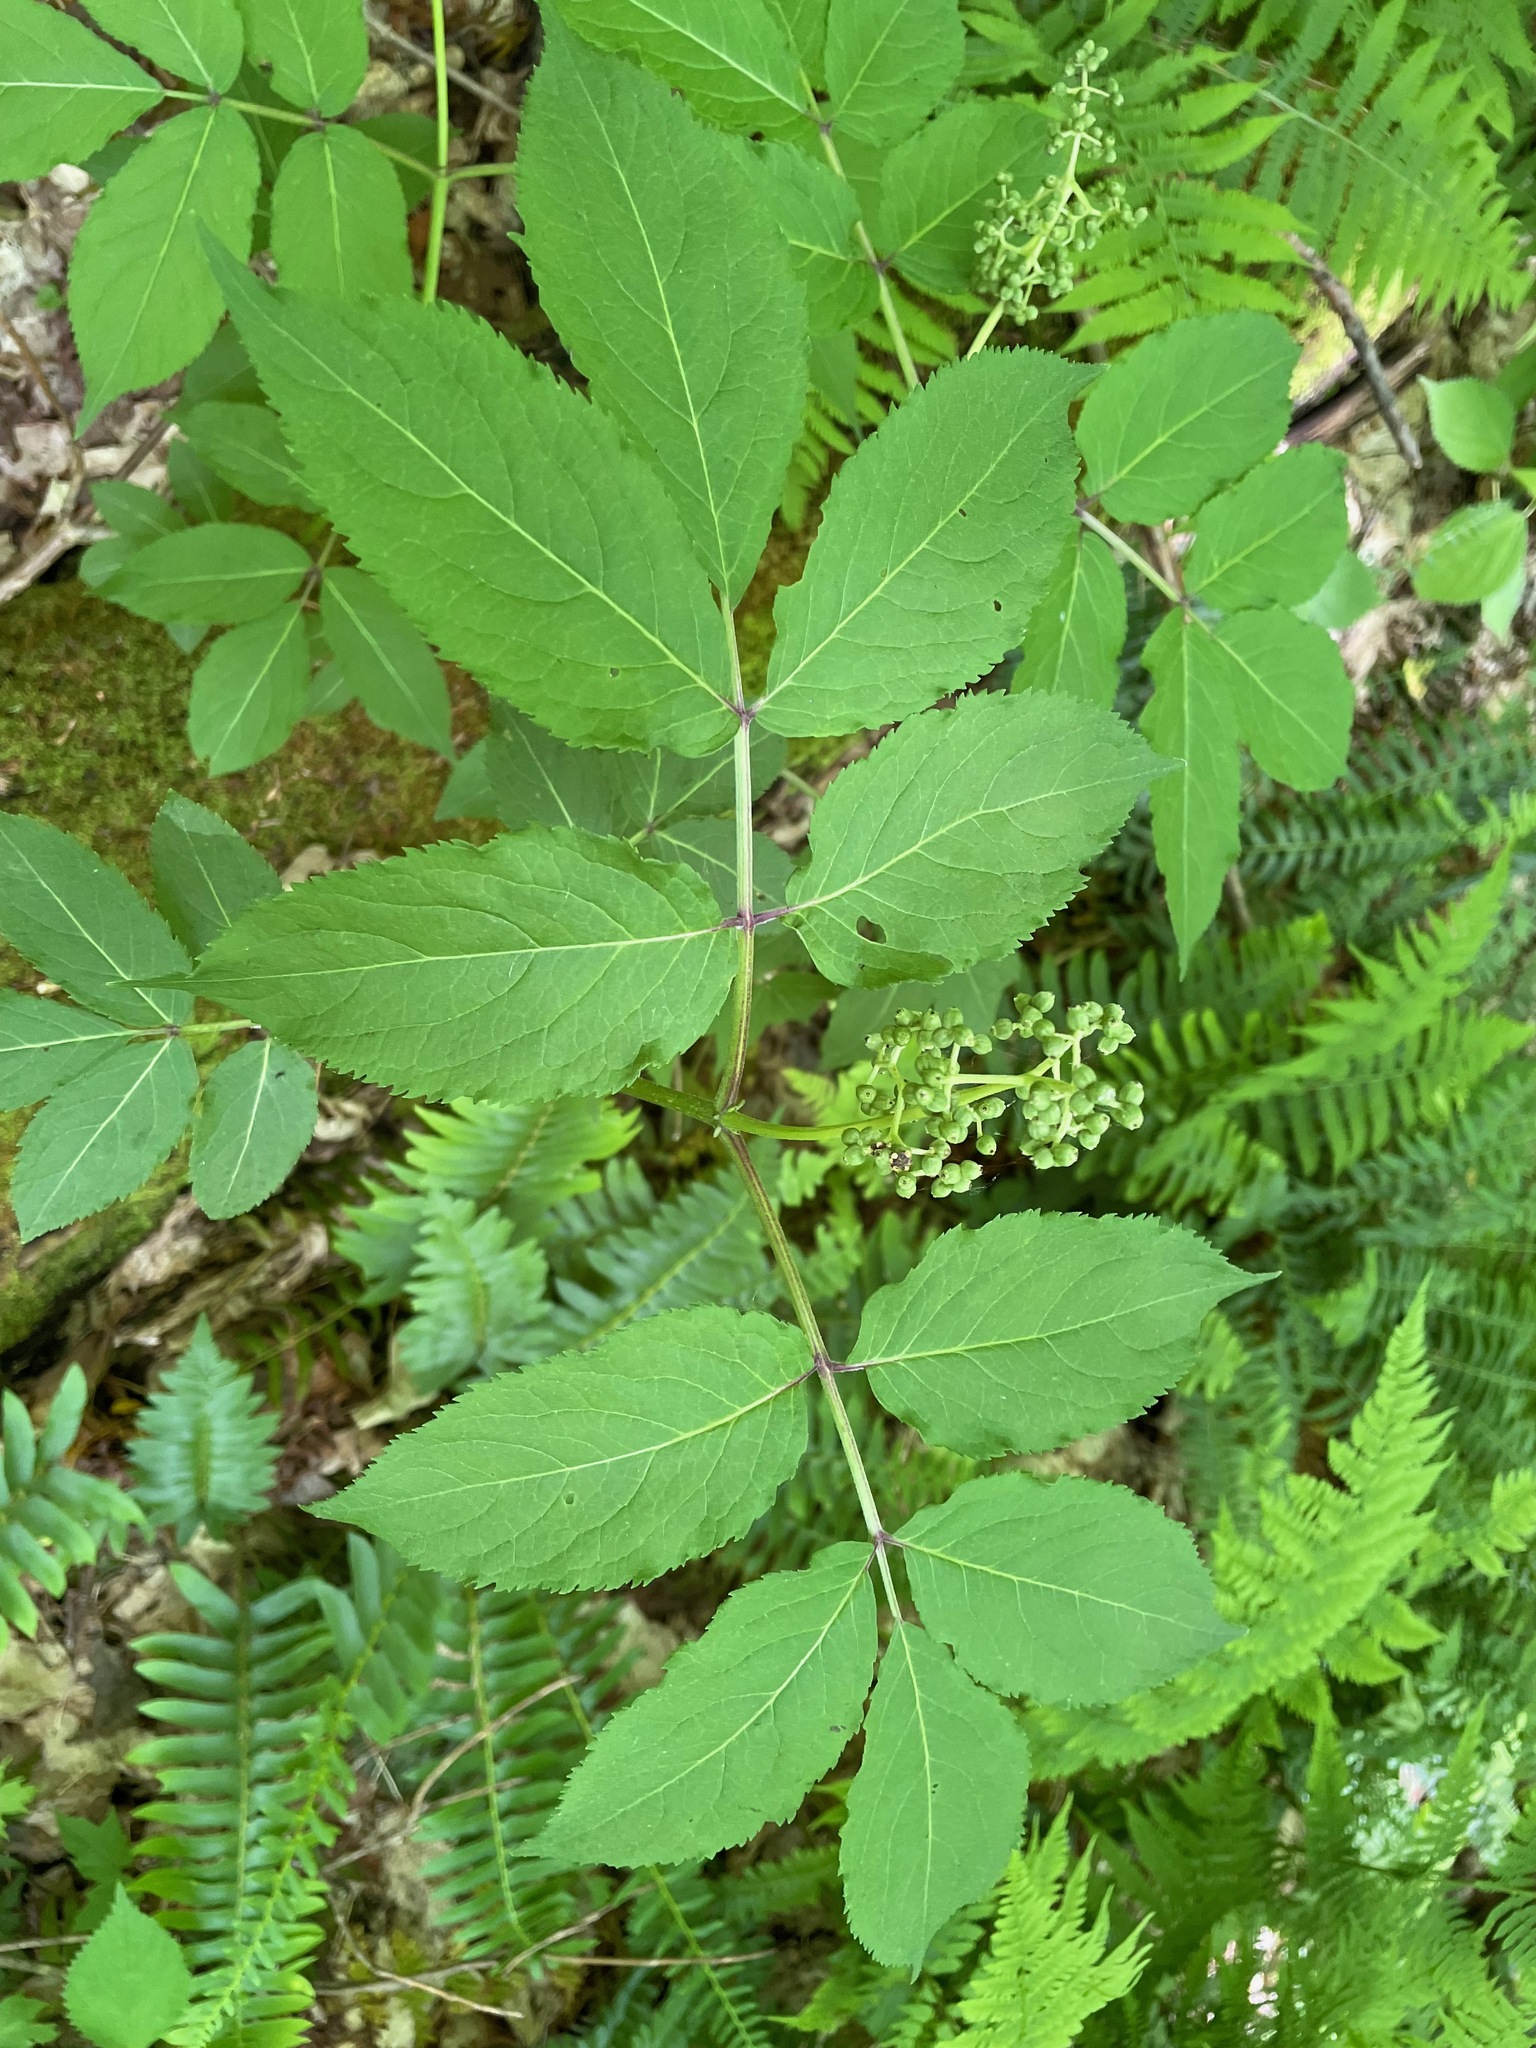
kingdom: Plantae
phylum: Tracheophyta
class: Magnoliopsida
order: Dipsacales
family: Viburnaceae
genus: Sambucus
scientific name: Sambucus racemosa
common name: Red-berried elder
